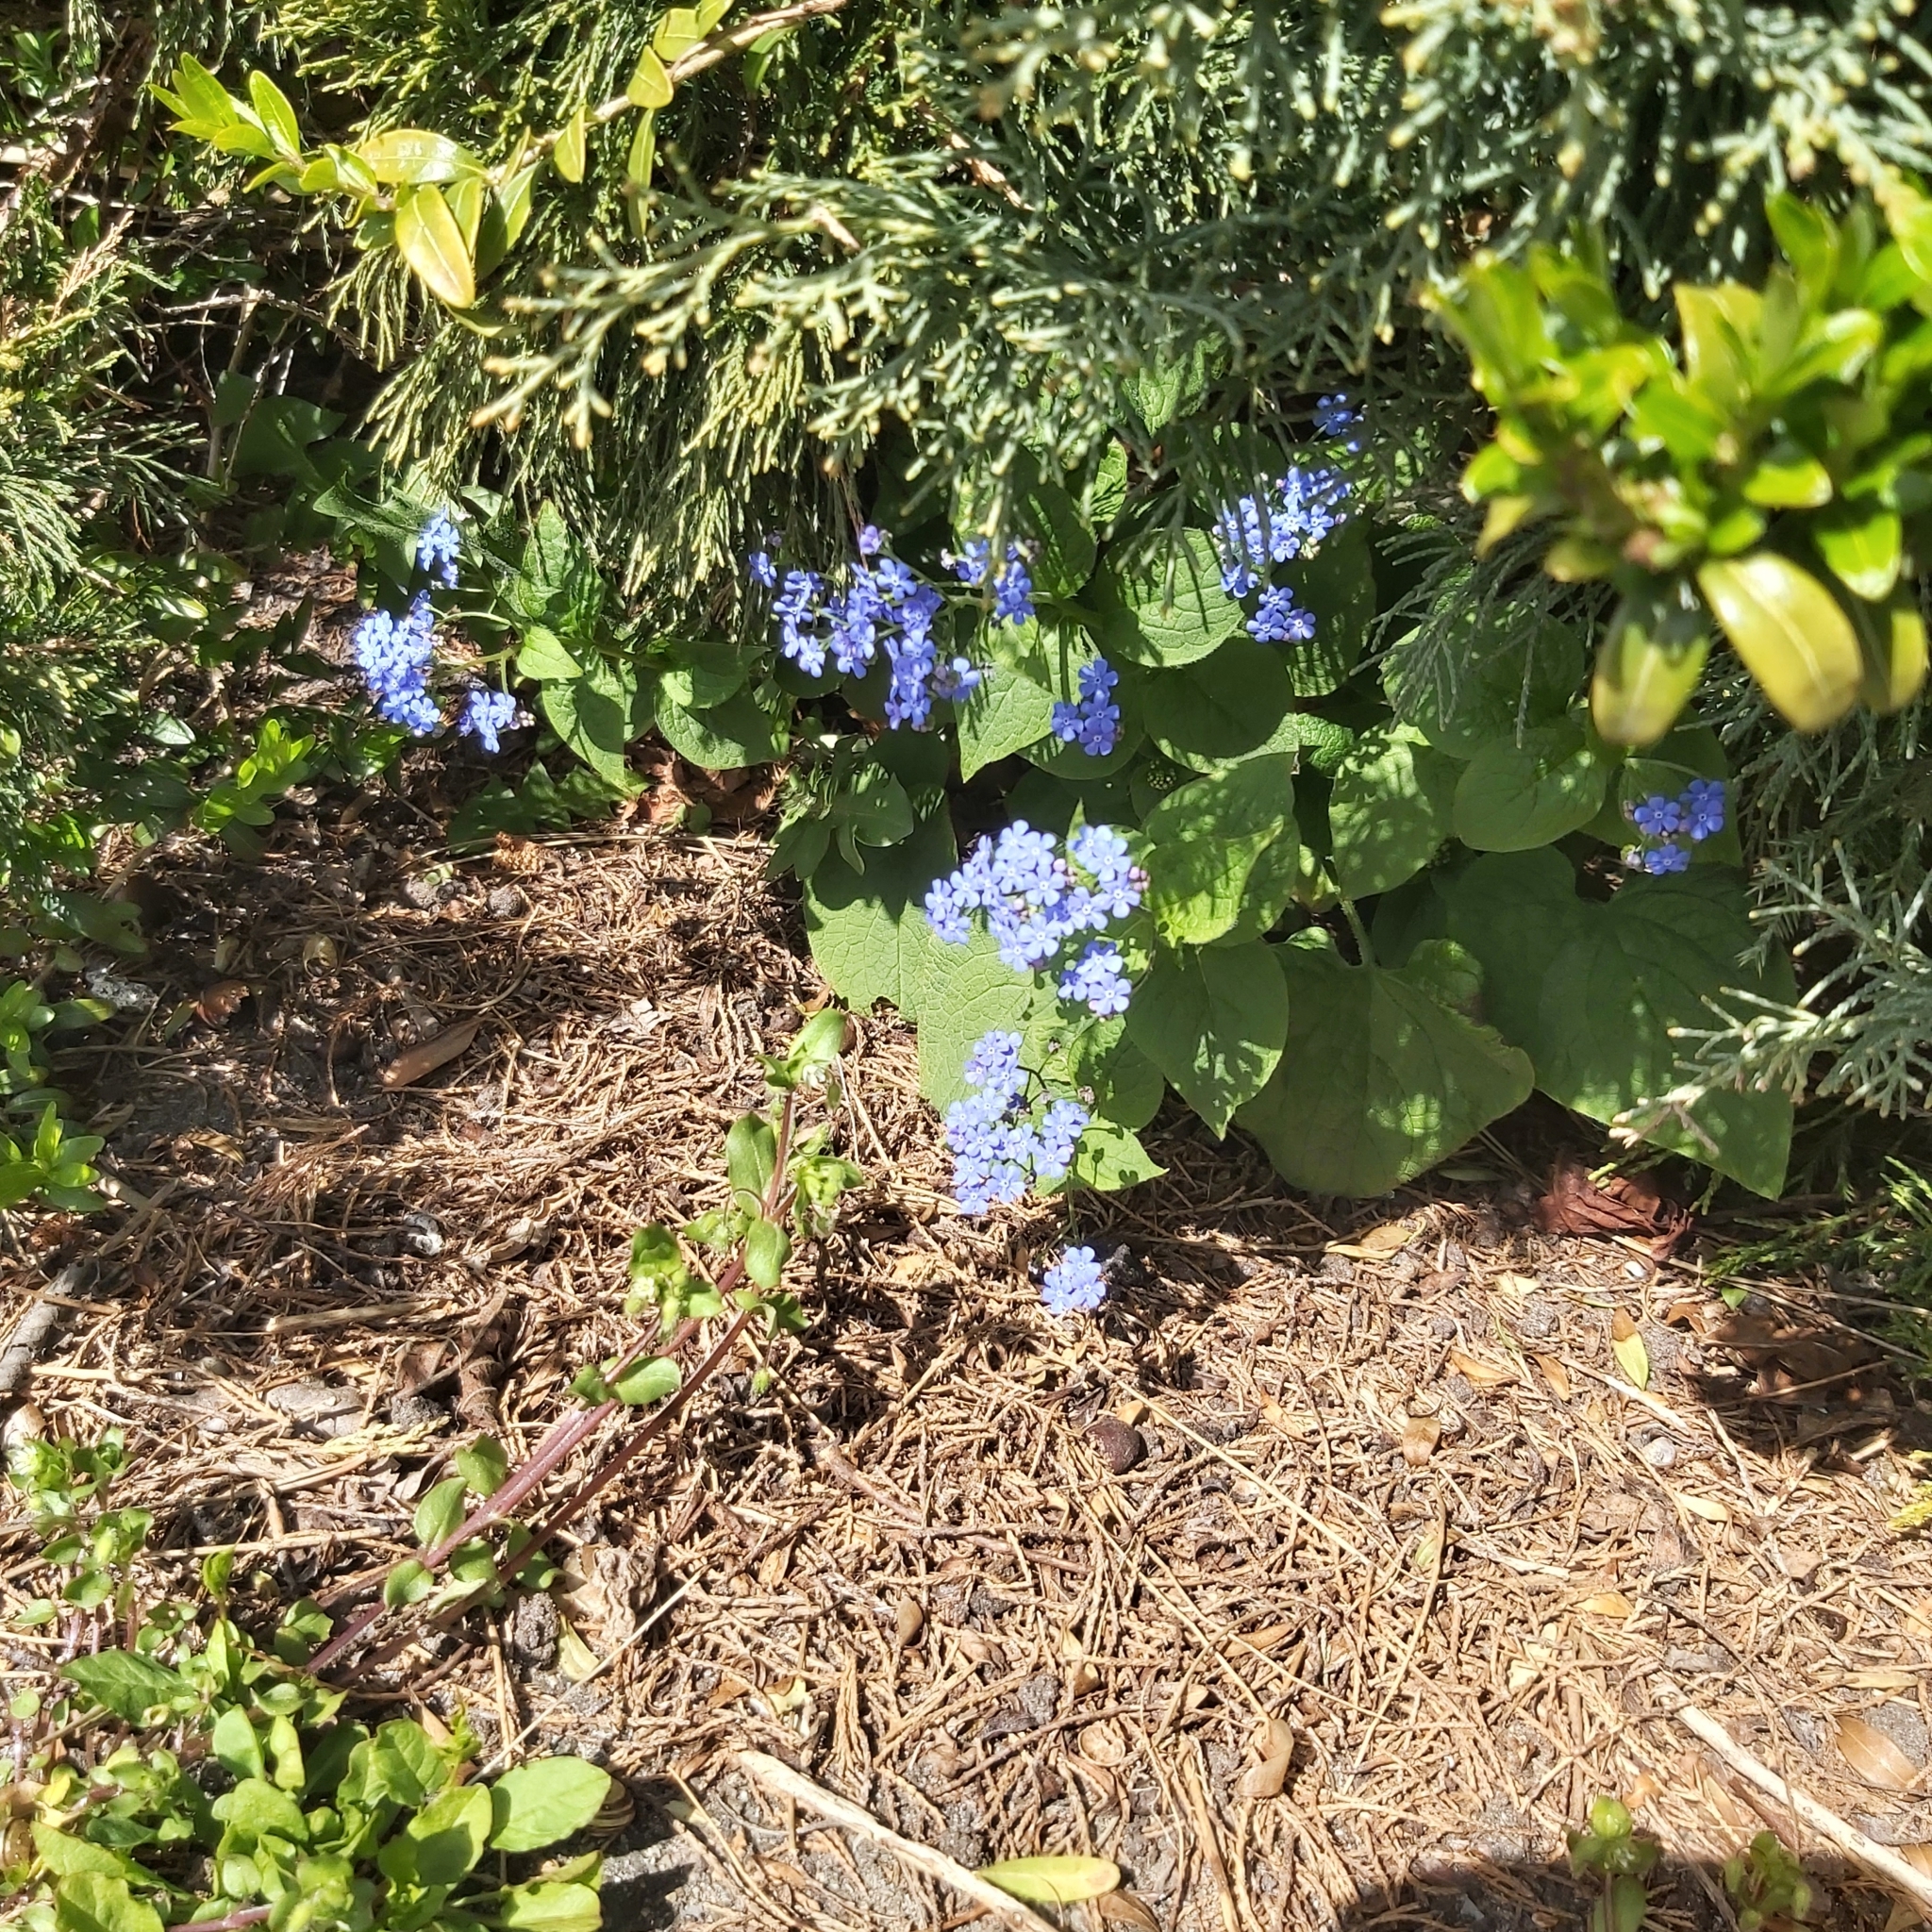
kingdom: Plantae
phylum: Tracheophyta
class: Magnoliopsida
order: Boraginales
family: Boraginaceae
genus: Brunnera
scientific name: Brunnera macrophylla
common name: Great forget-me-not
